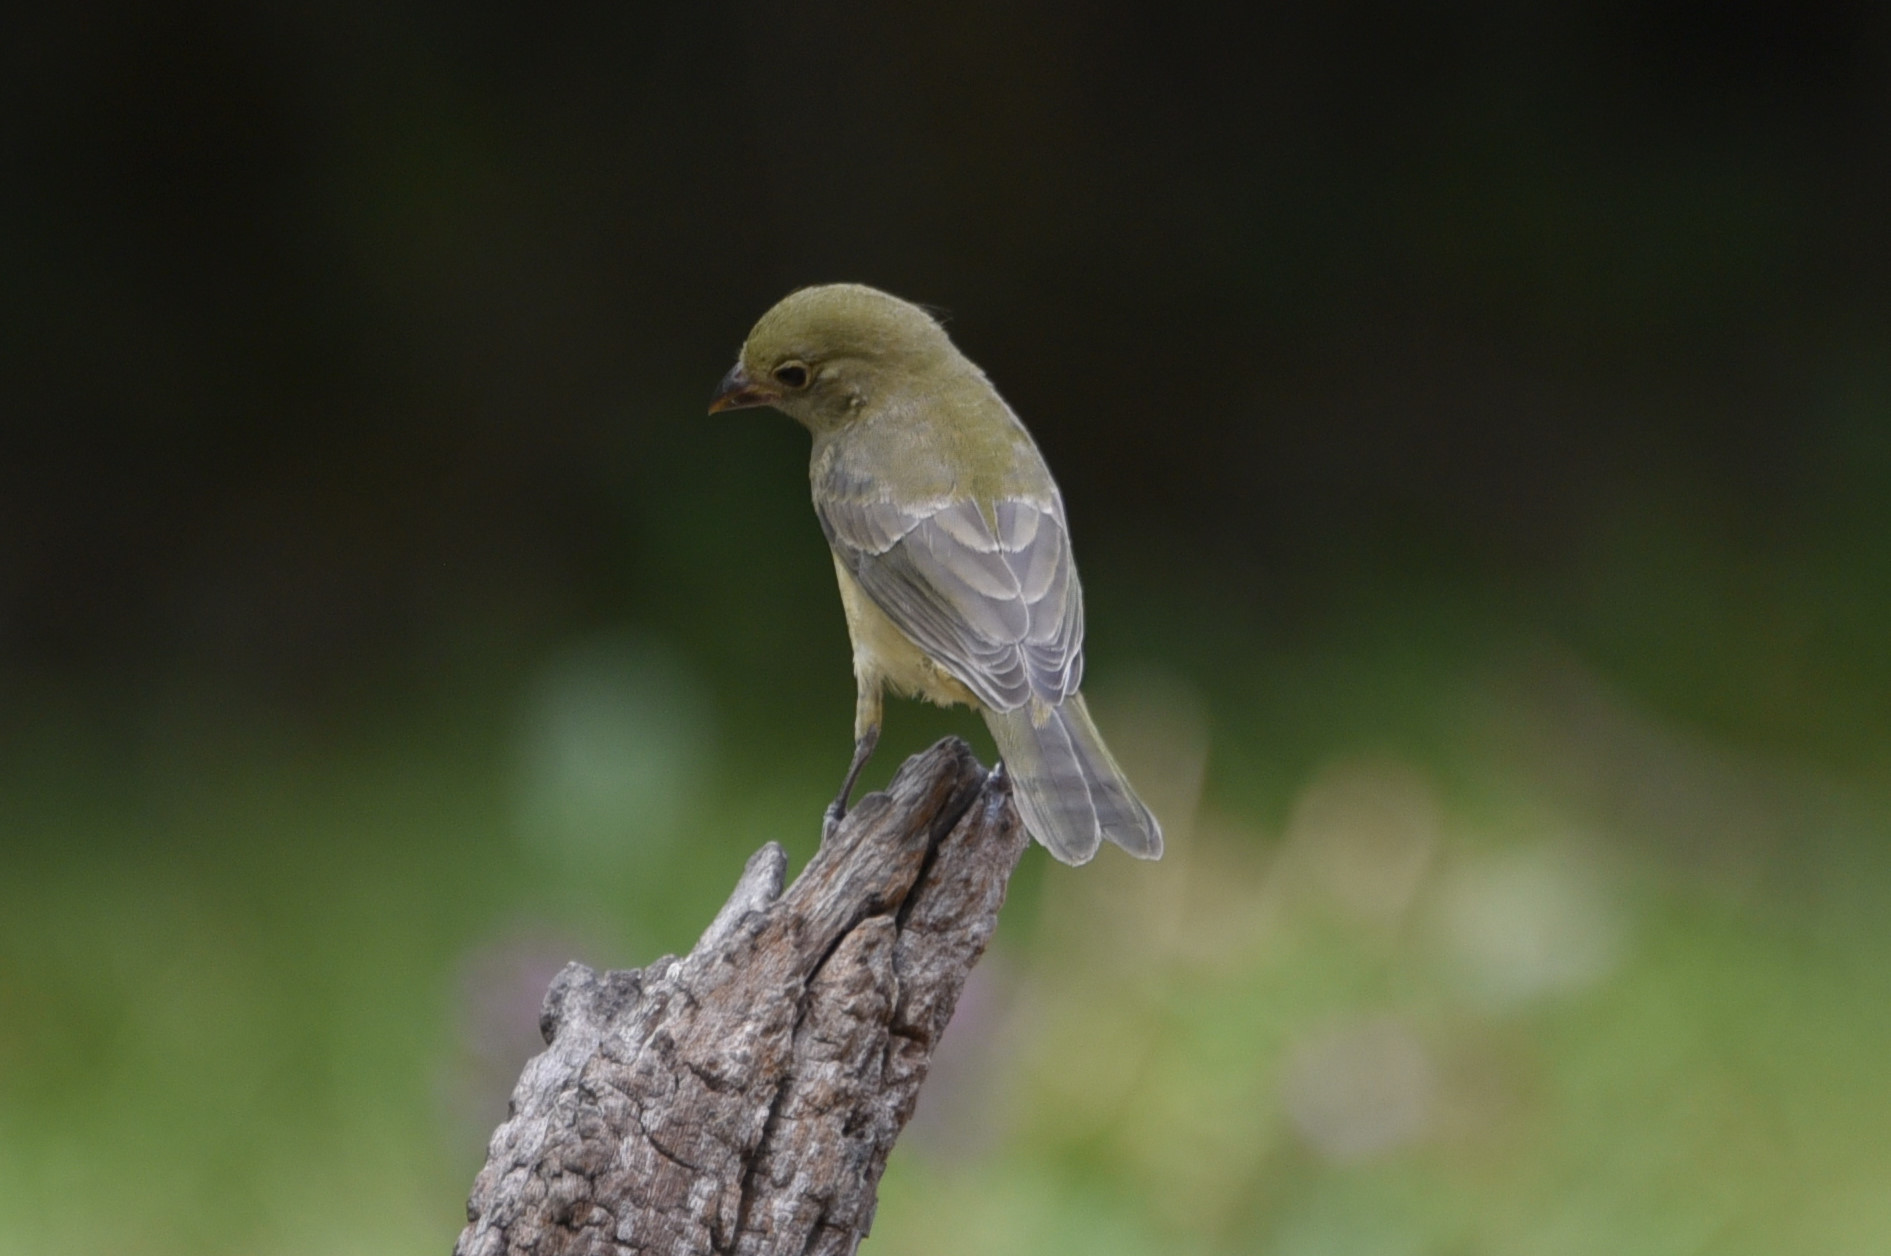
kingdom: Animalia
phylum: Chordata
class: Aves
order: Passeriformes
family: Cardinalidae
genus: Passerina
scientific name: Passerina ciris
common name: Painted bunting
